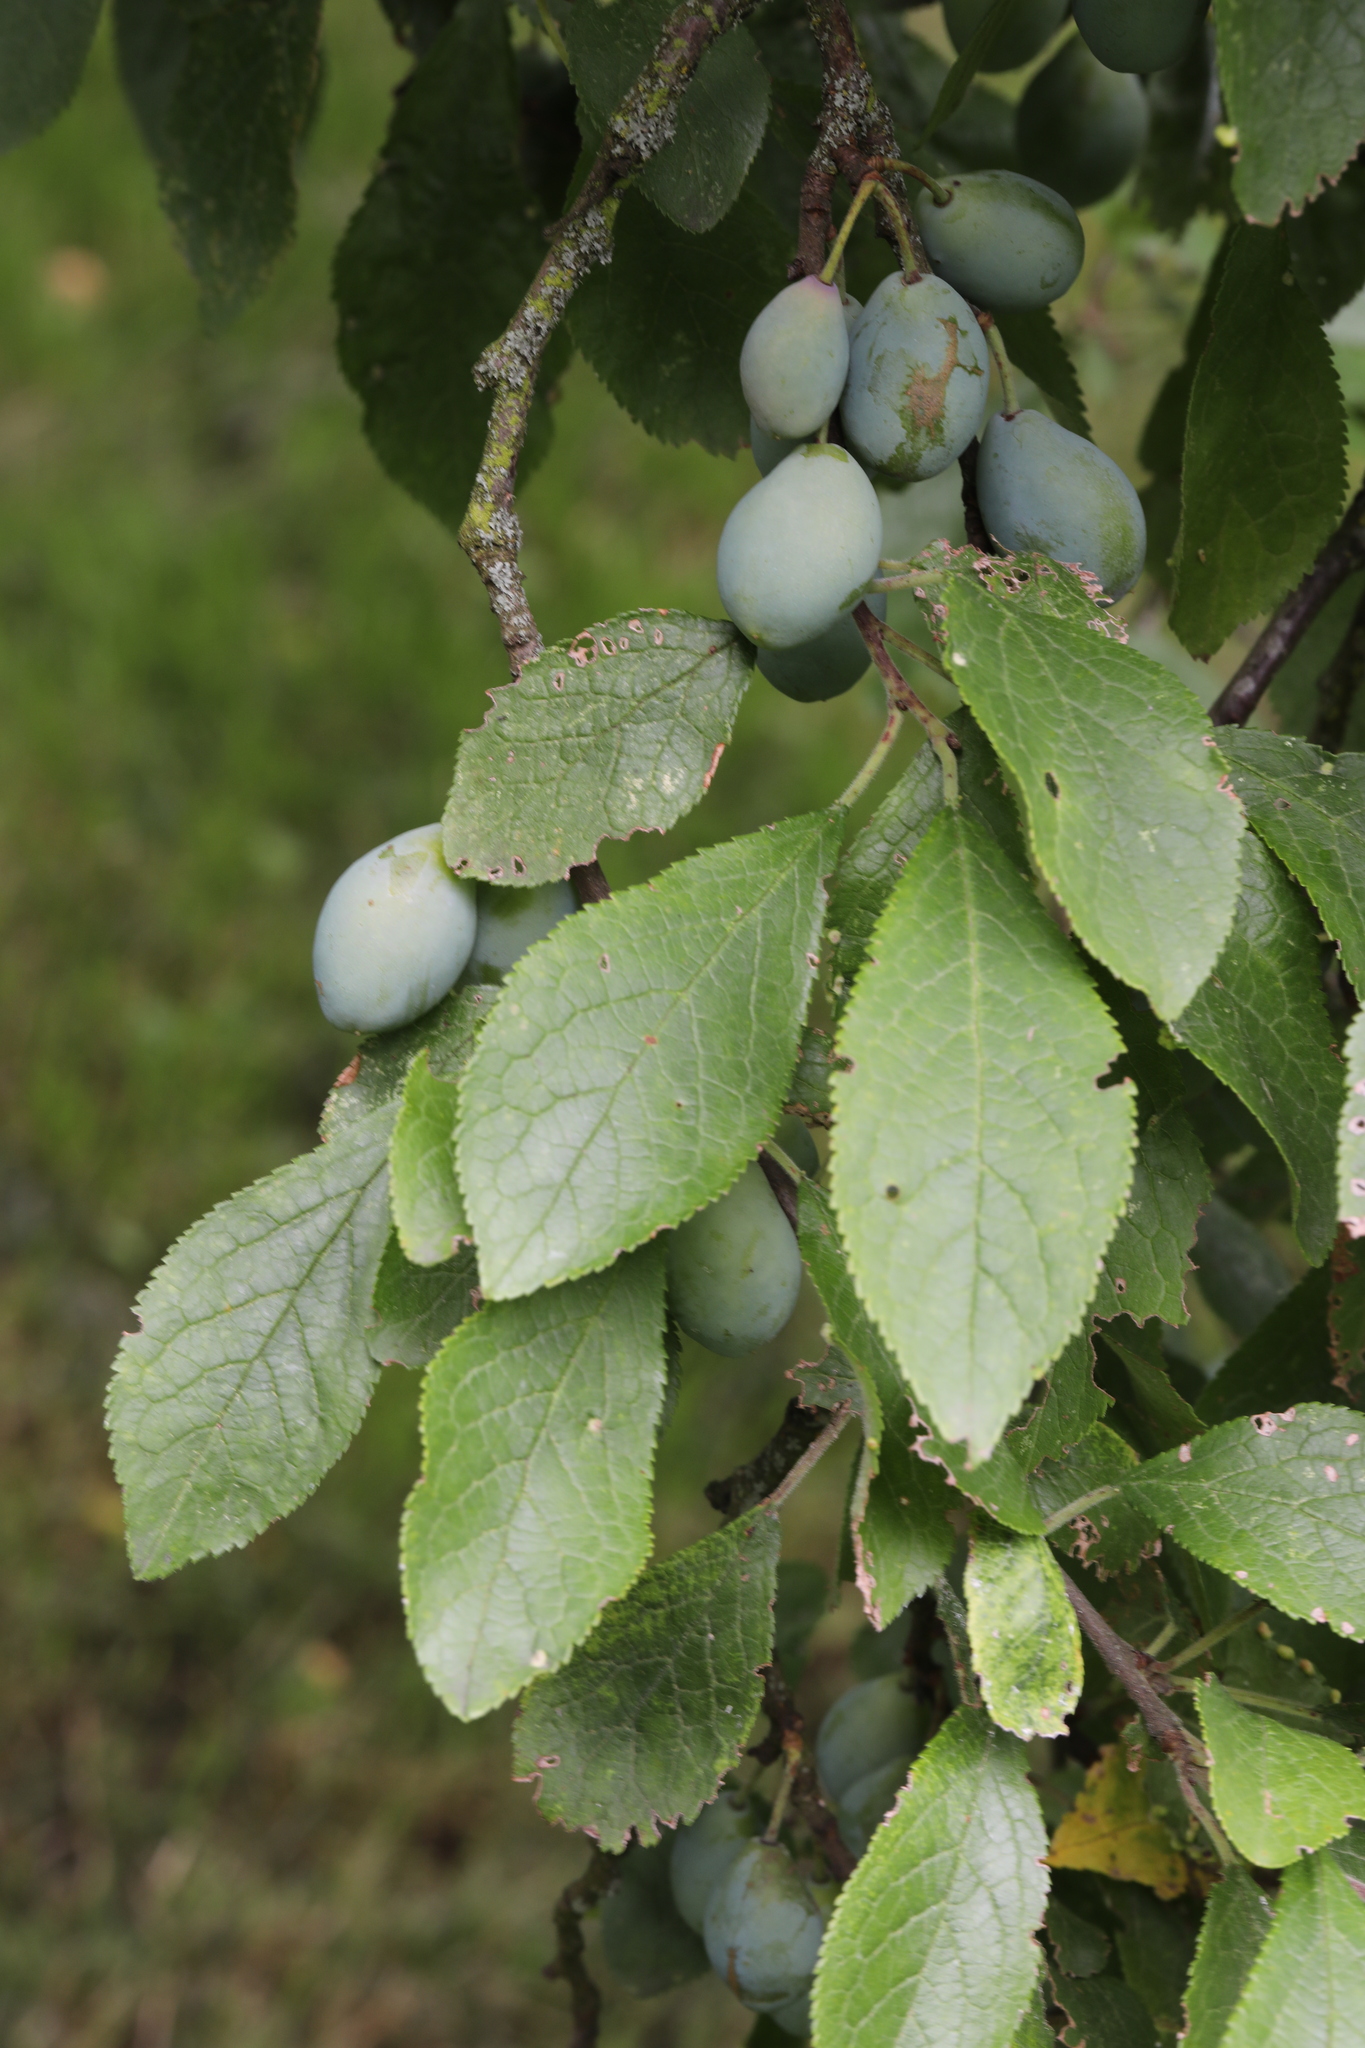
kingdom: Plantae
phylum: Tracheophyta
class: Magnoliopsida
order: Rosales
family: Rosaceae
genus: Prunus
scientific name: Prunus
